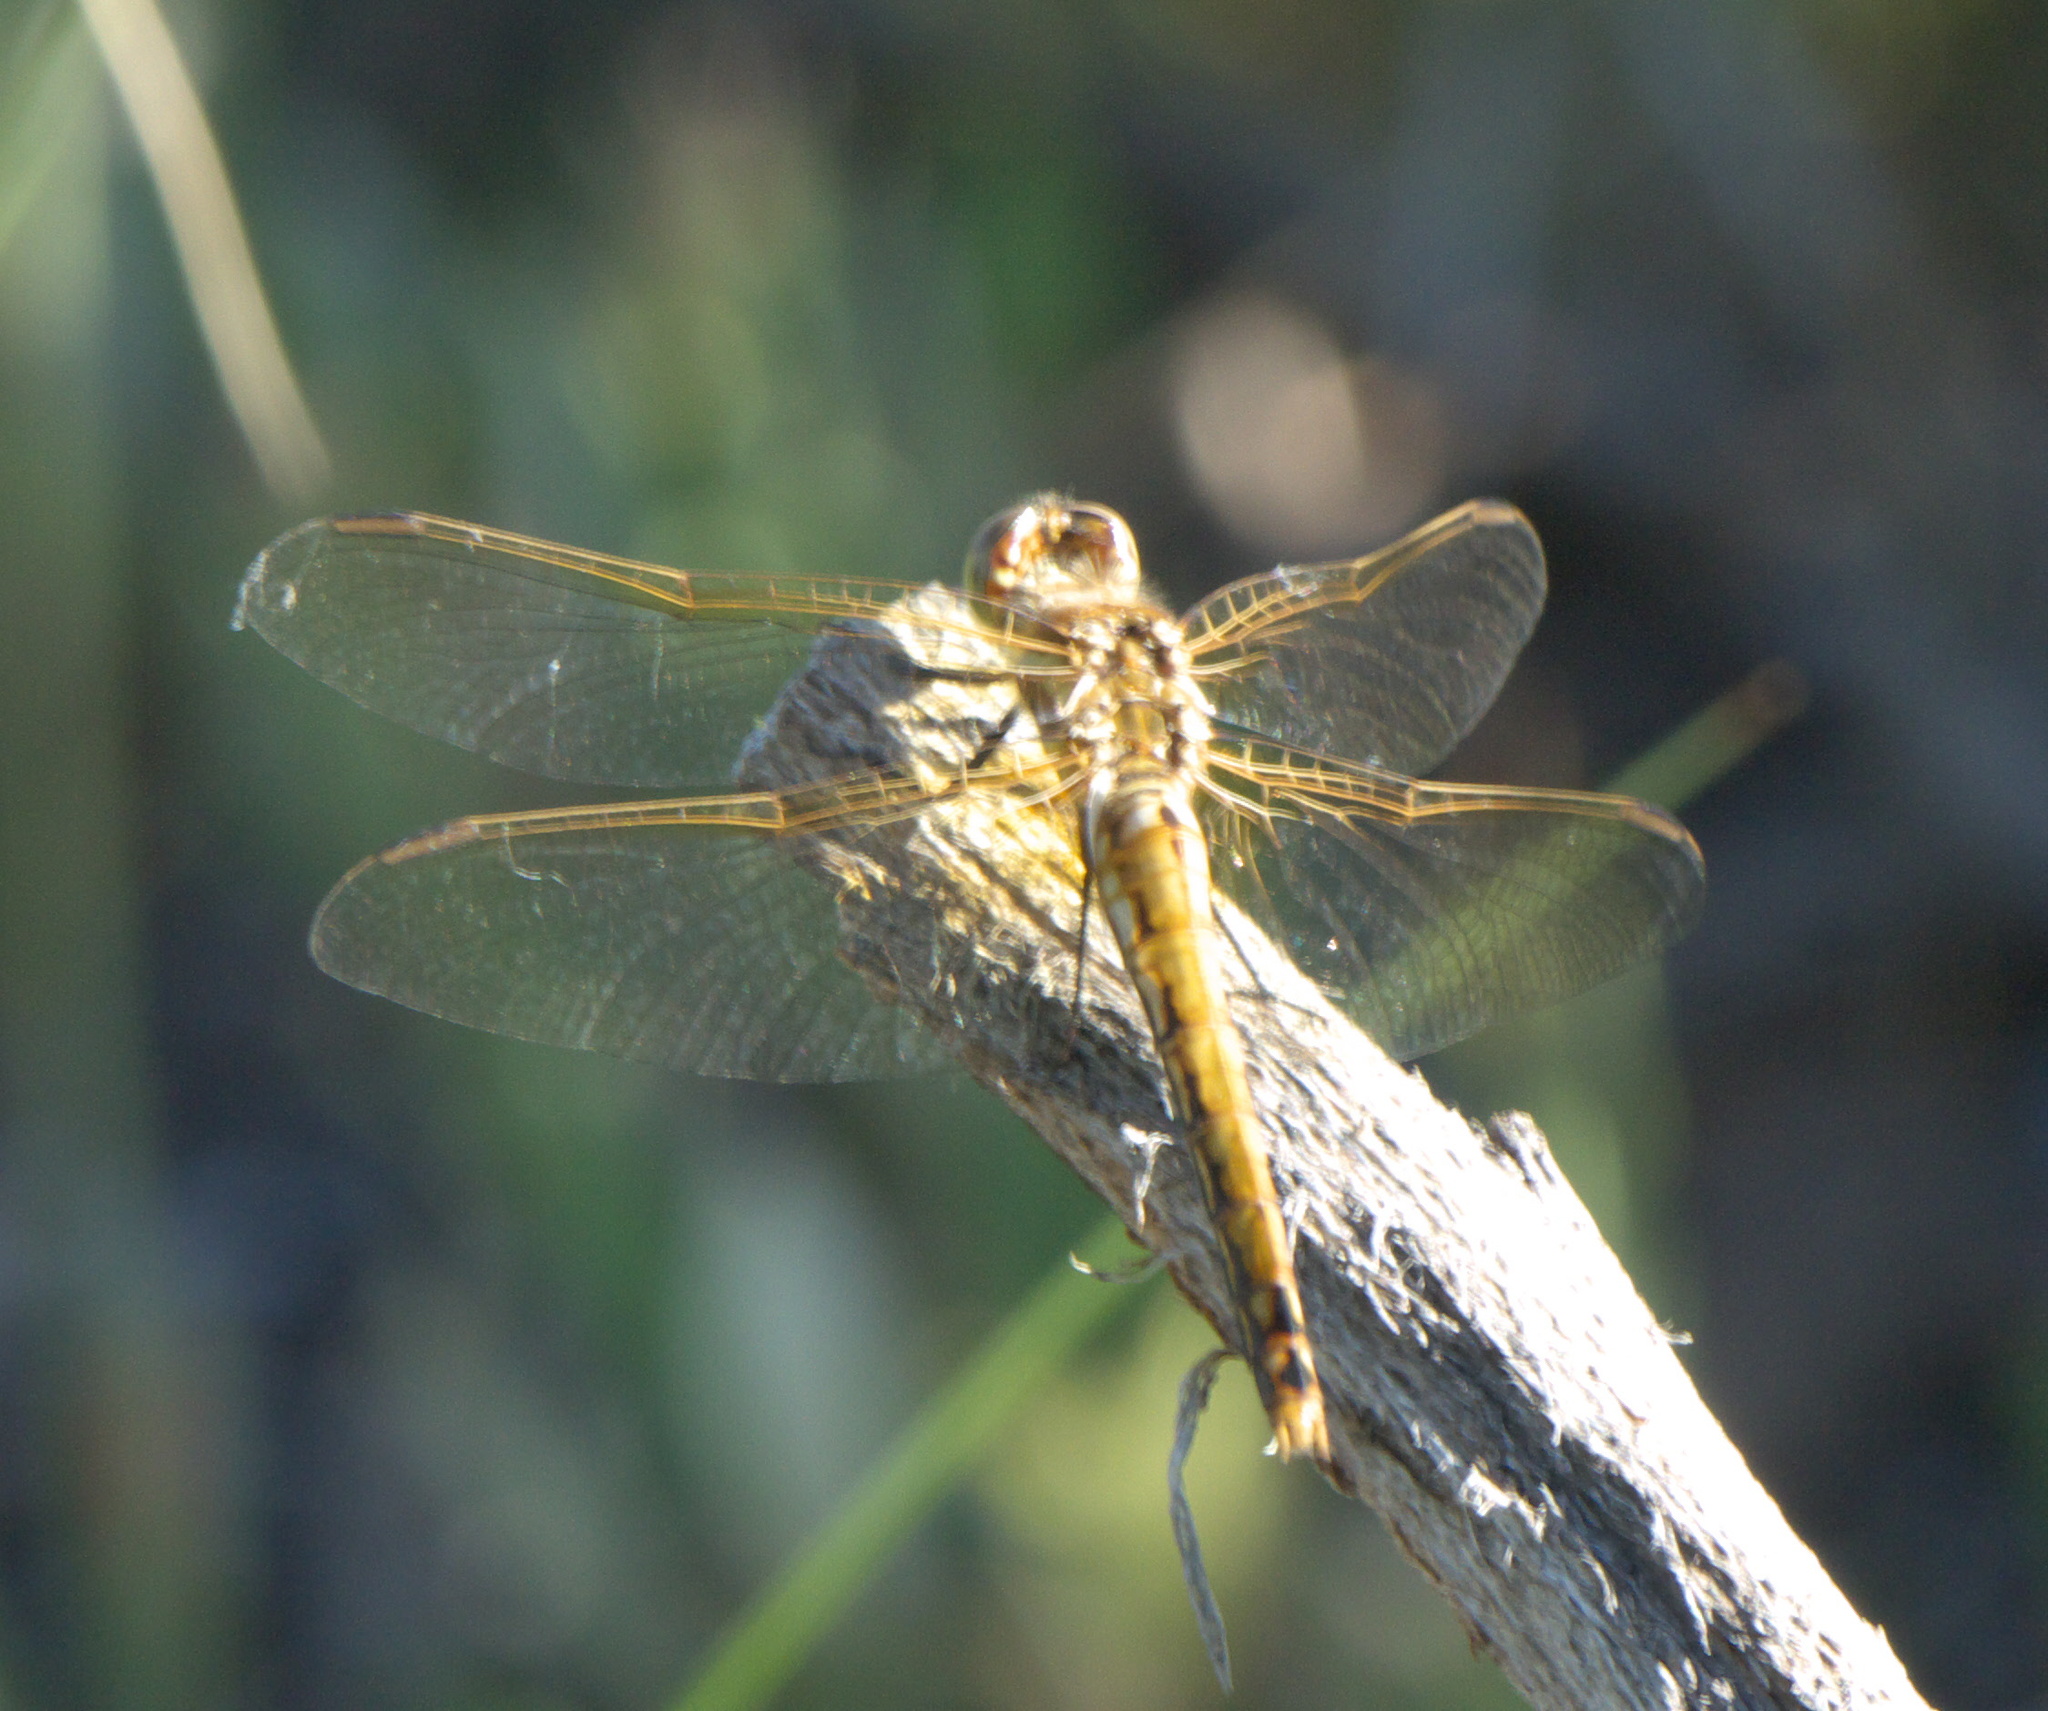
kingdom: Animalia
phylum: Arthropoda
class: Insecta
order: Odonata
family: Libellulidae
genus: Sympetrum
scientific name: Sympetrum corruptum
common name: Variegated meadowhawk
